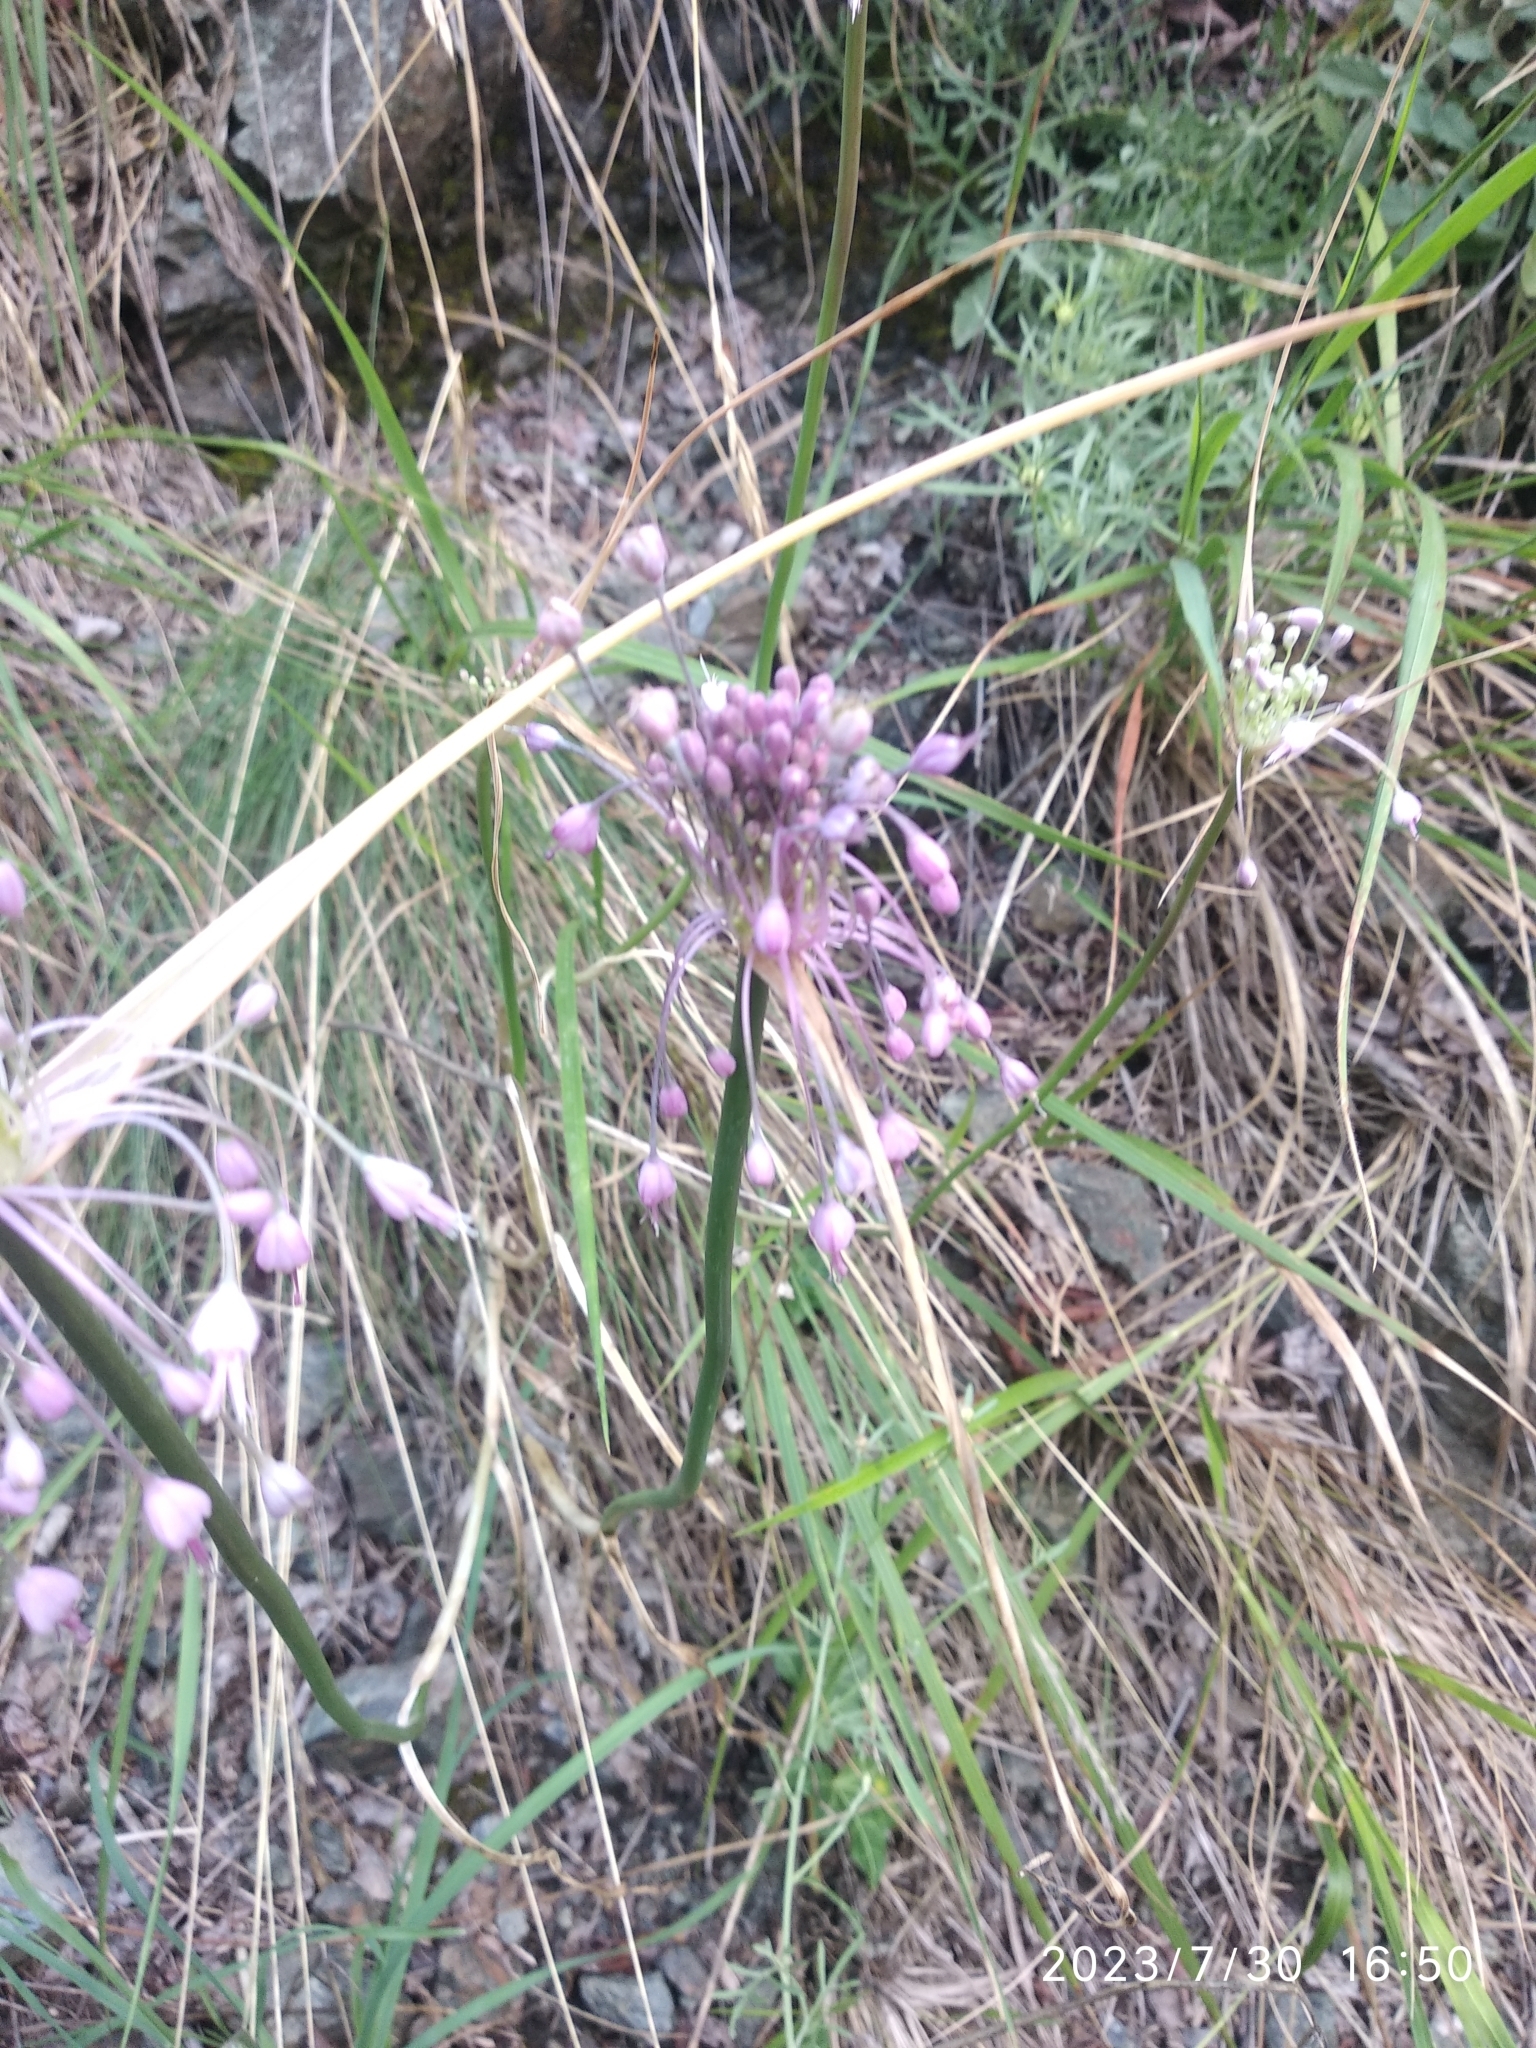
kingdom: Plantae
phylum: Tracheophyta
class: Liliopsida
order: Asparagales
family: Amaryllidaceae
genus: Allium
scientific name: Allium carinatum
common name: Keeled garlic
